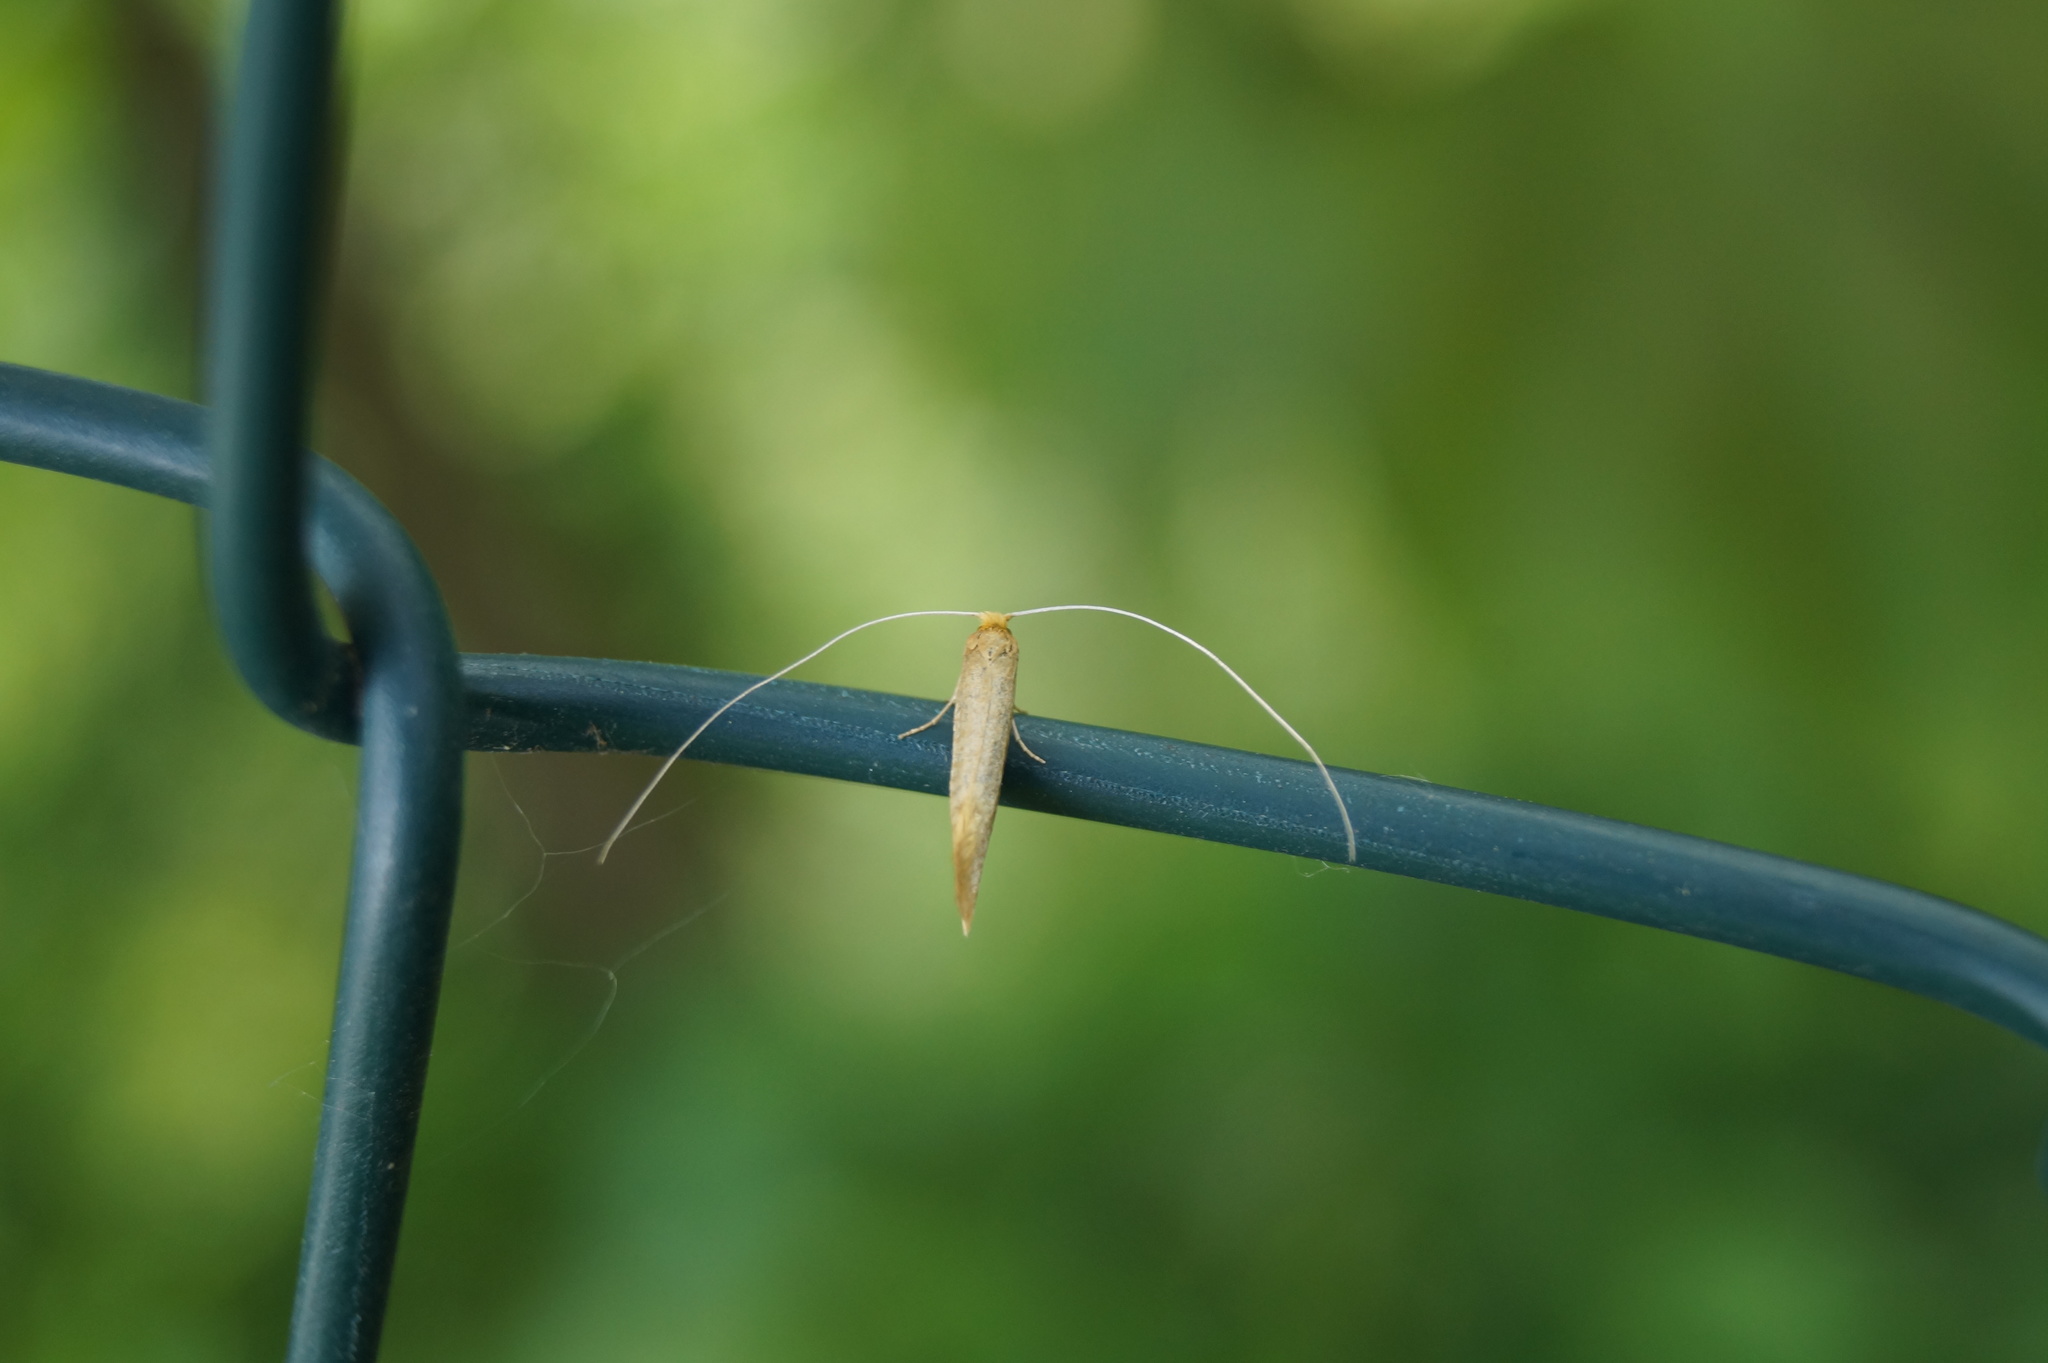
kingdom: Animalia
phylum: Arthropoda
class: Insecta
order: Lepidoptera
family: Adelidae
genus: Nematopogon
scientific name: Nematopogon swammerdamella
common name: Large long-horn
